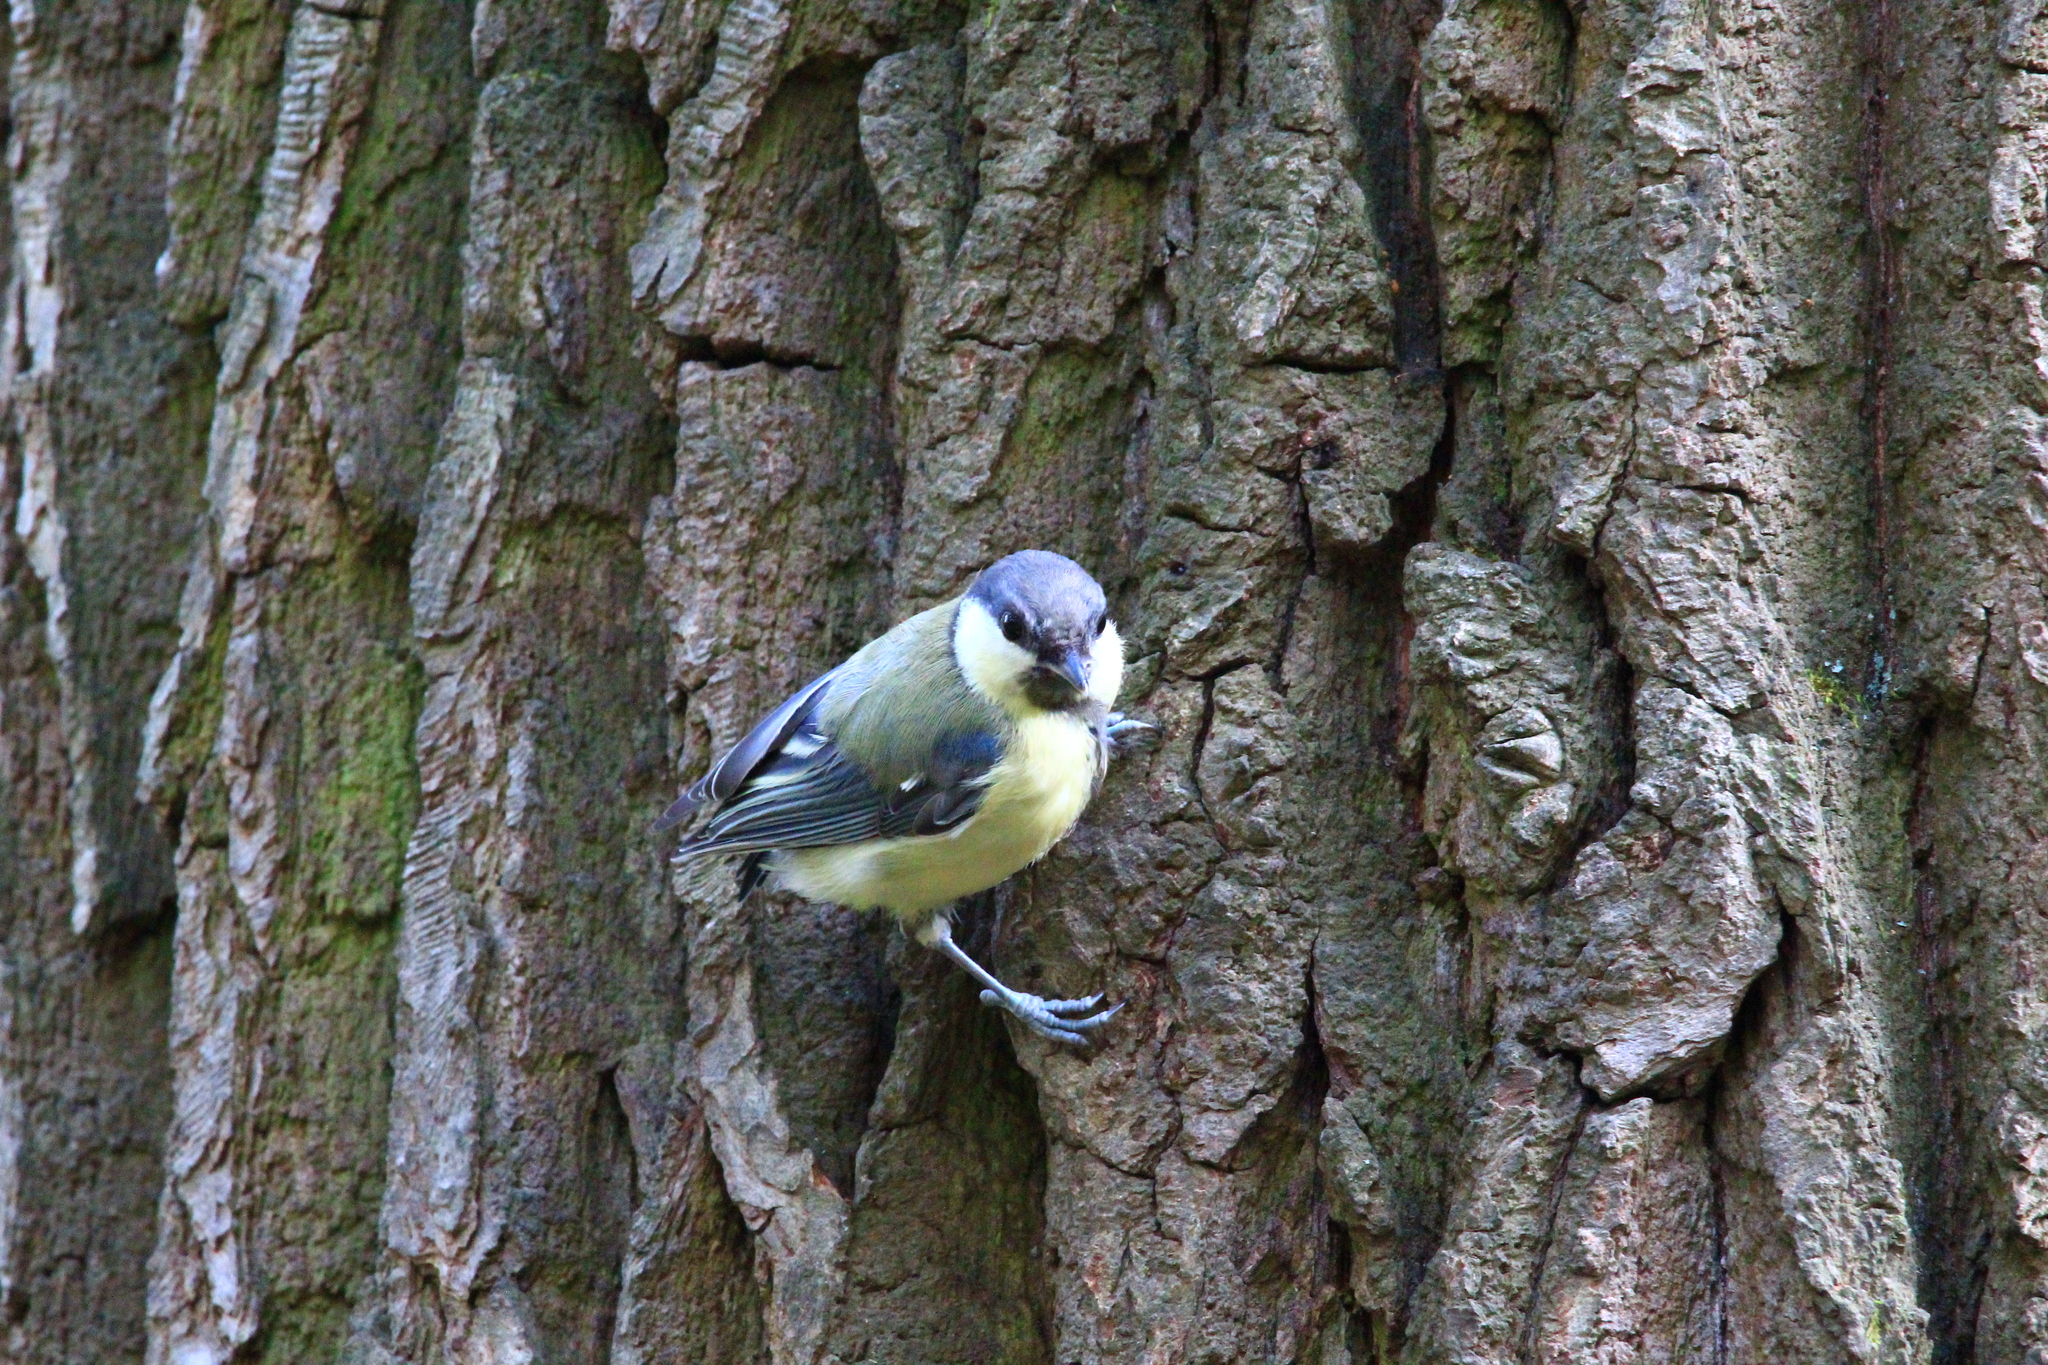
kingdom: Animalia
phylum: Chordata
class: Aves
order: Passeriformes
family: Paridae
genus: Parus
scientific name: Parus major
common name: Great tit
